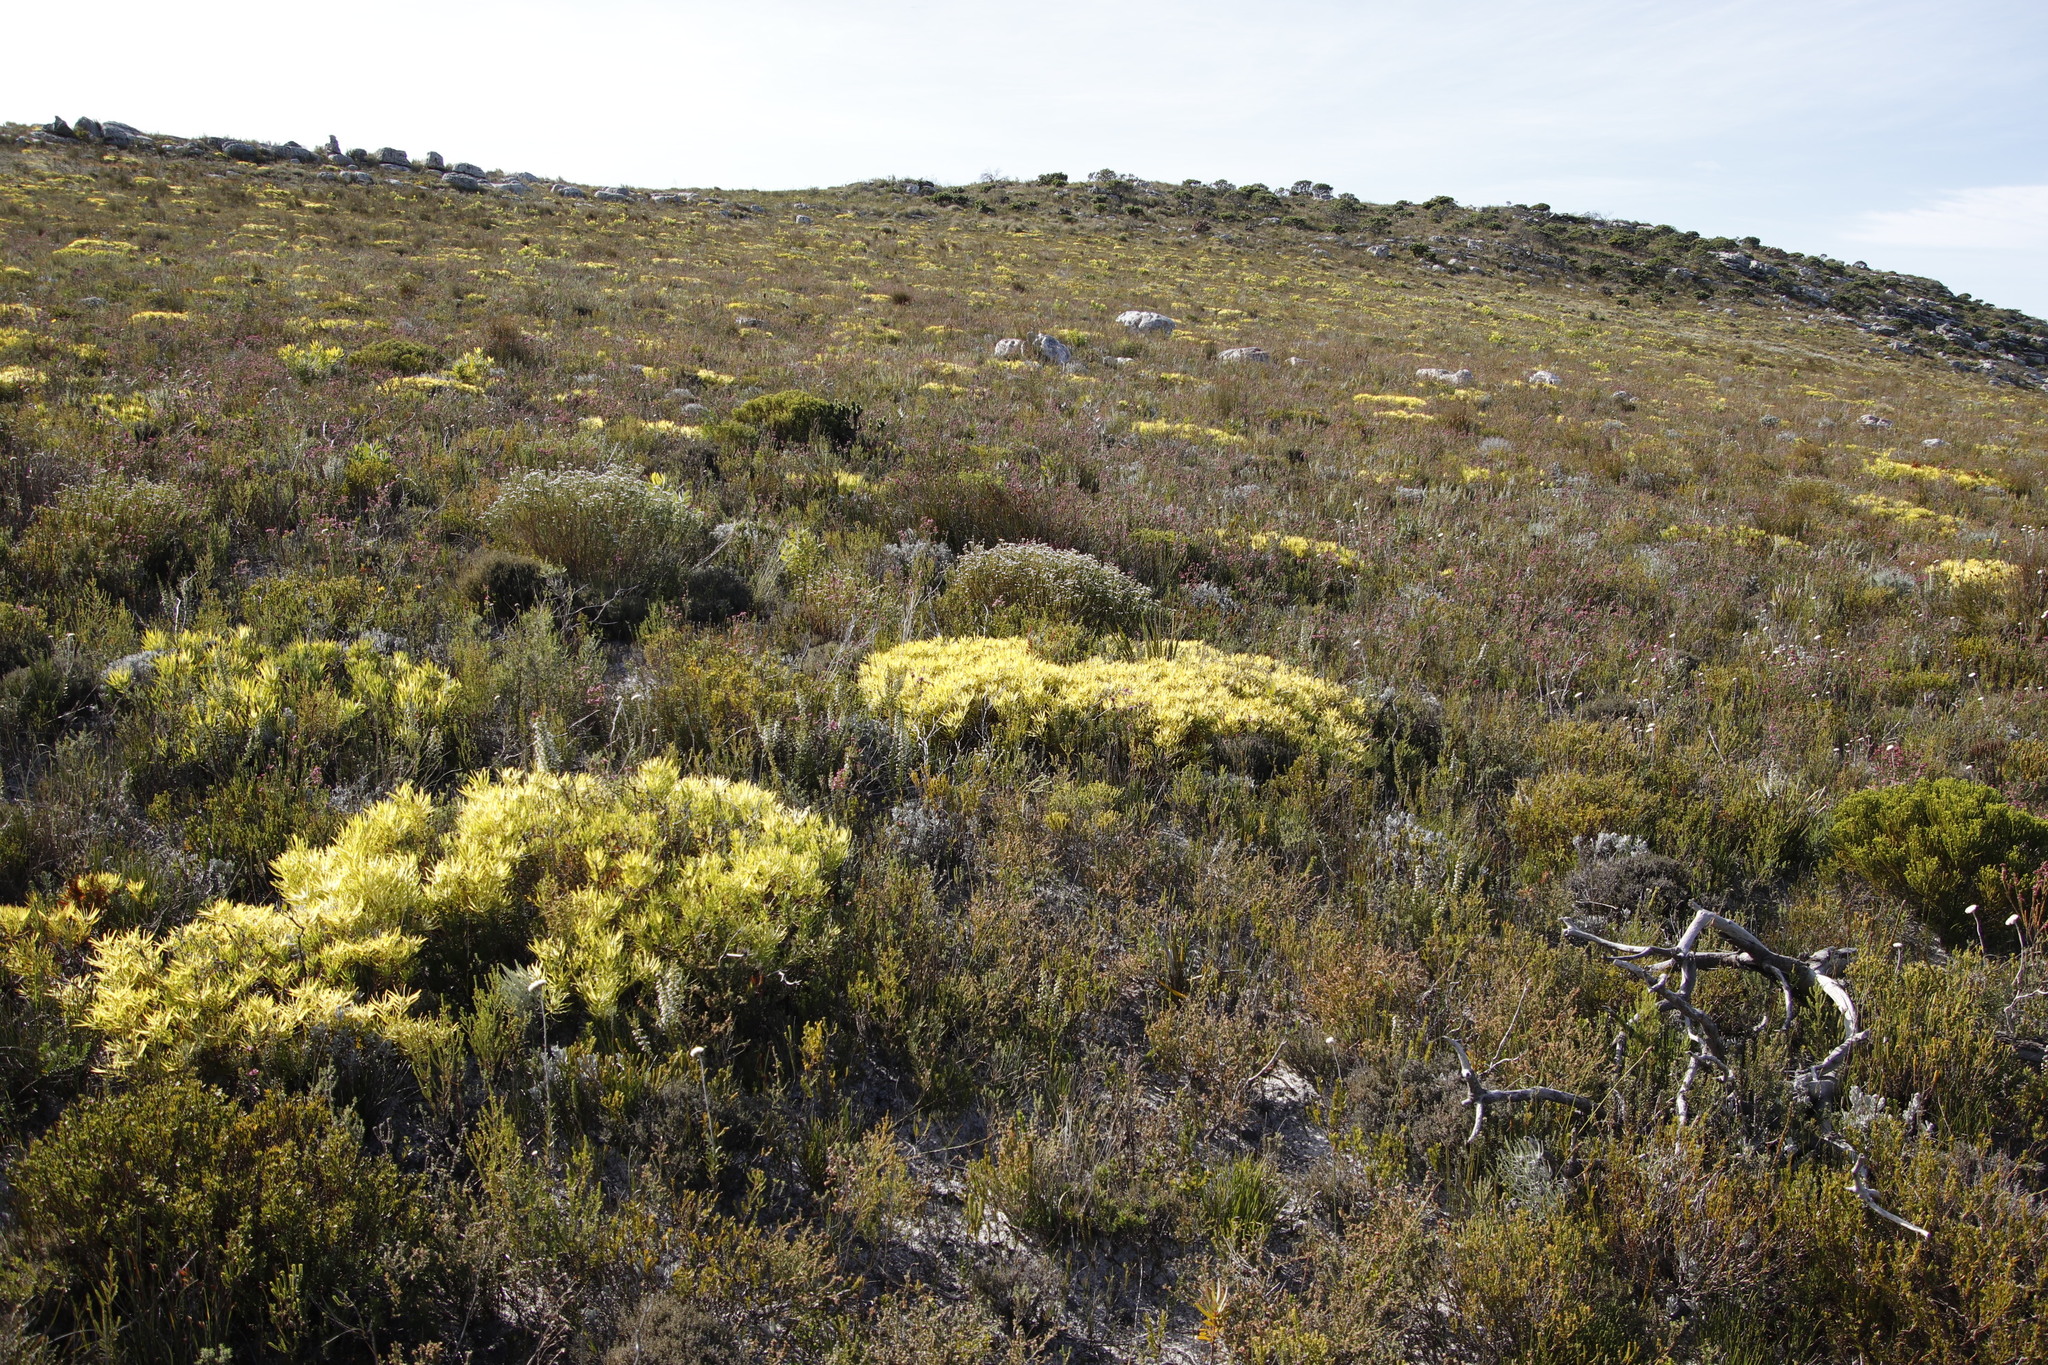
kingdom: Plantae
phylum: Tracheophyta
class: Magnoliopsida
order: Proteales
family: Proteaceae
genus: Leucadendron
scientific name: Leucadendron salignum
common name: Common sunshine conebush
